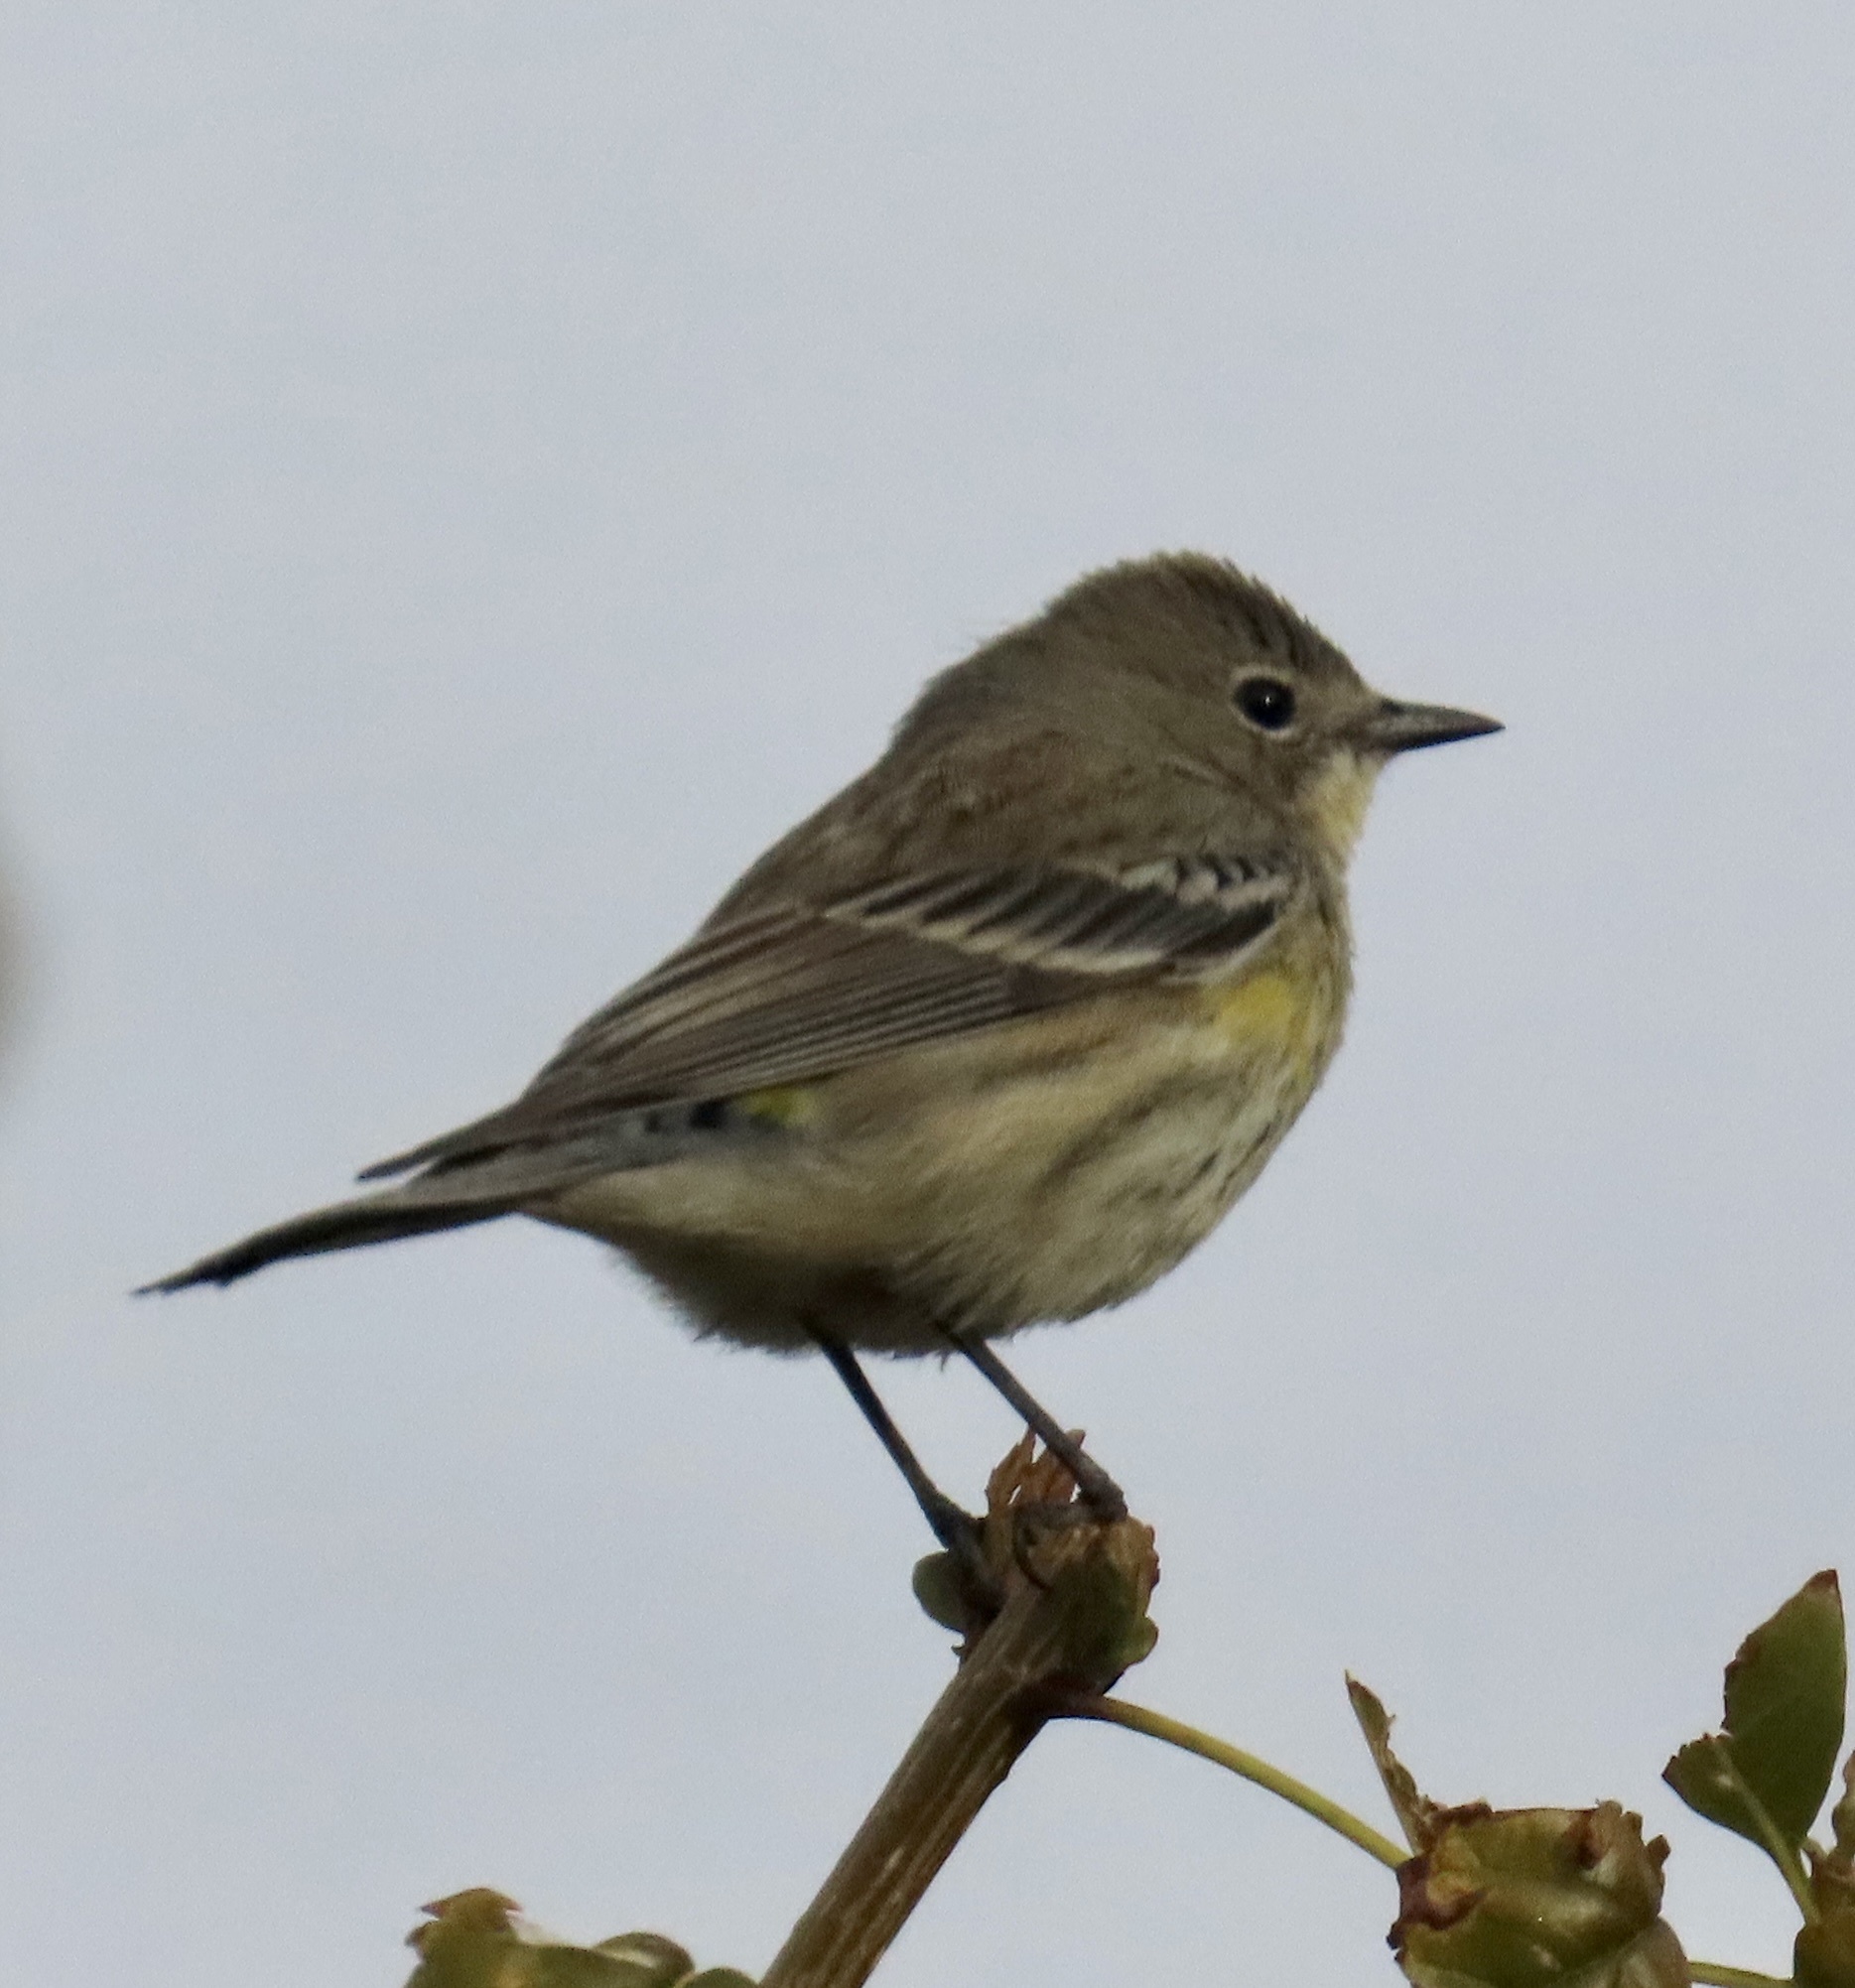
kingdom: Animalia
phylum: Chordata
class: Aves
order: Passeriformes
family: Parulidae
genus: Setophaga
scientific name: Setophaga coronata
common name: Myrtle warbler
